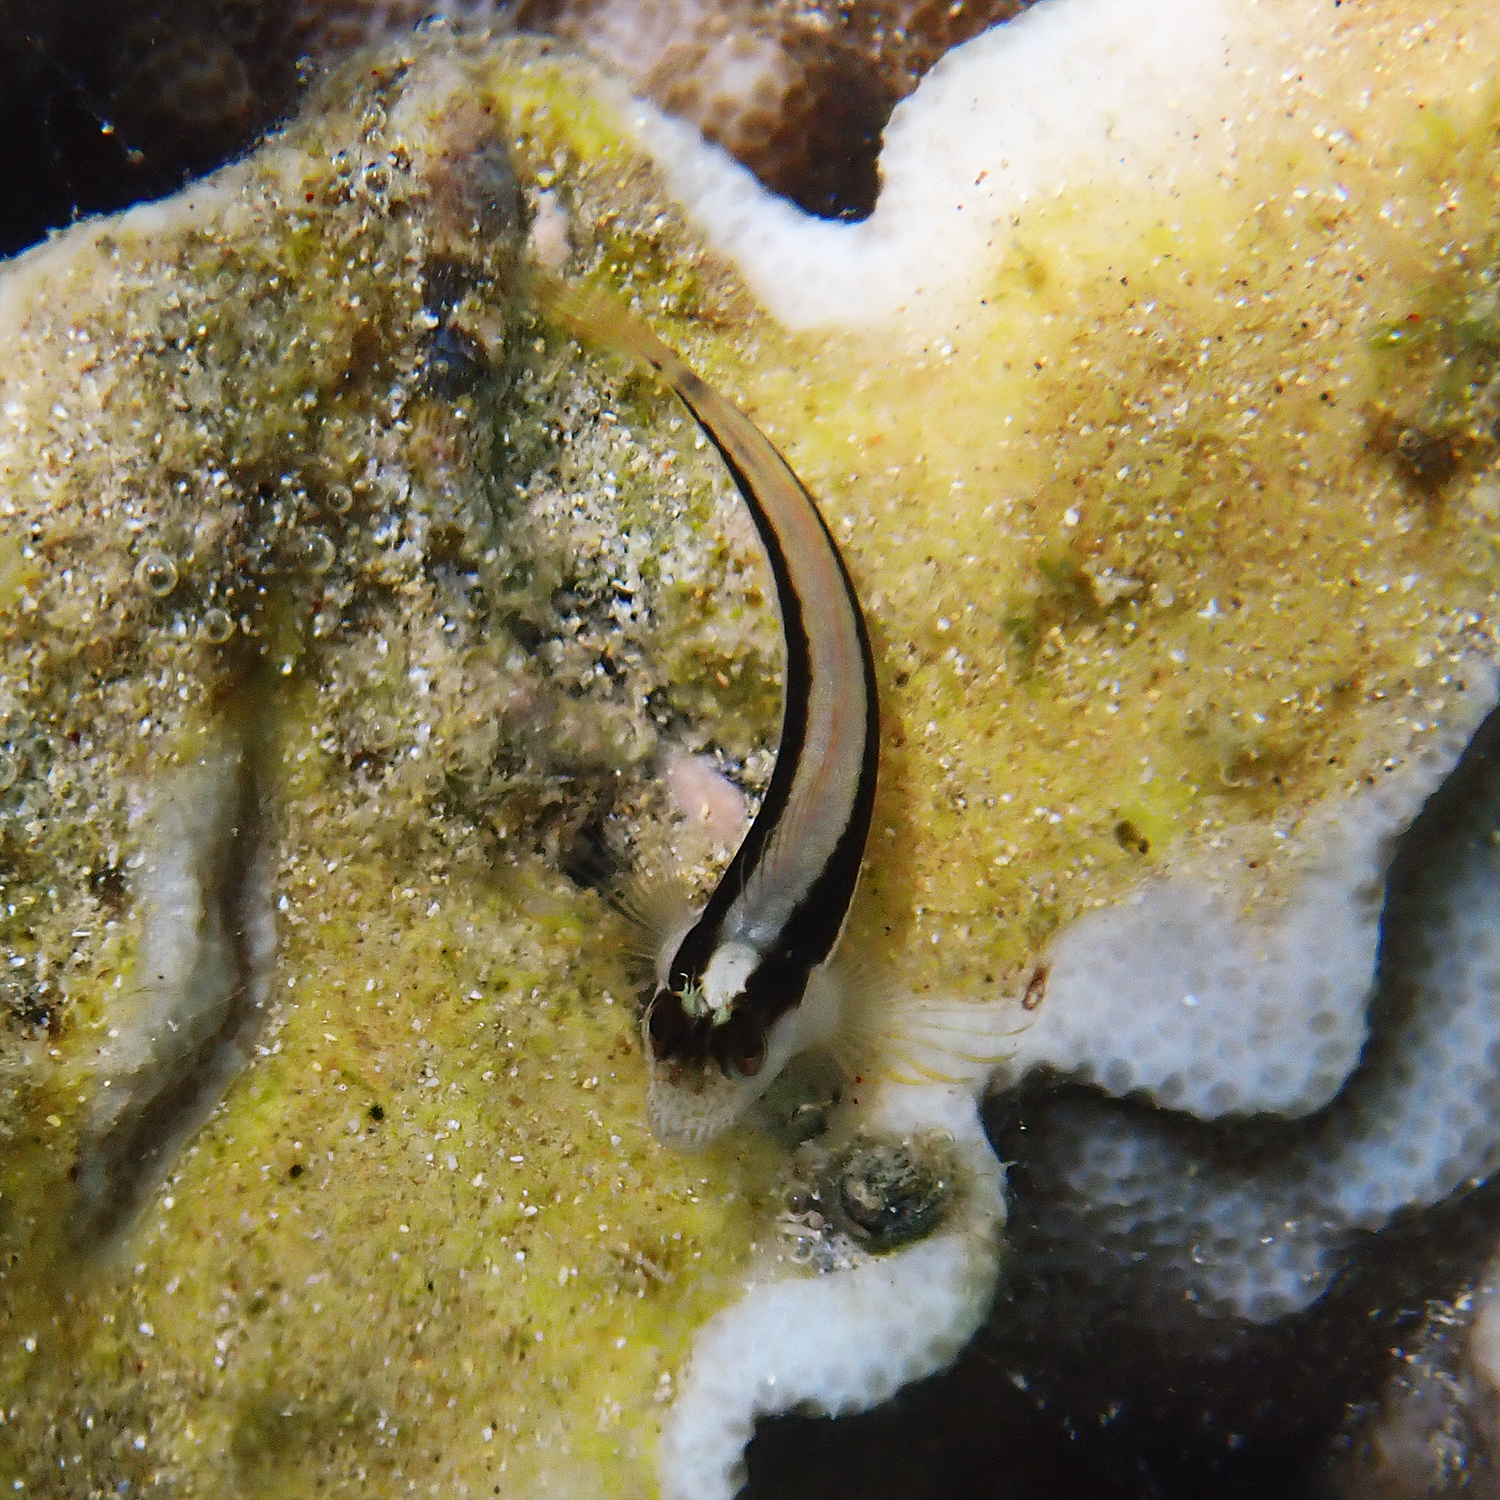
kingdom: Animalia
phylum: Chordata
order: Perciformes
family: Blenniidae
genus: Parablennius
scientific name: Parablennius serratolineatus
